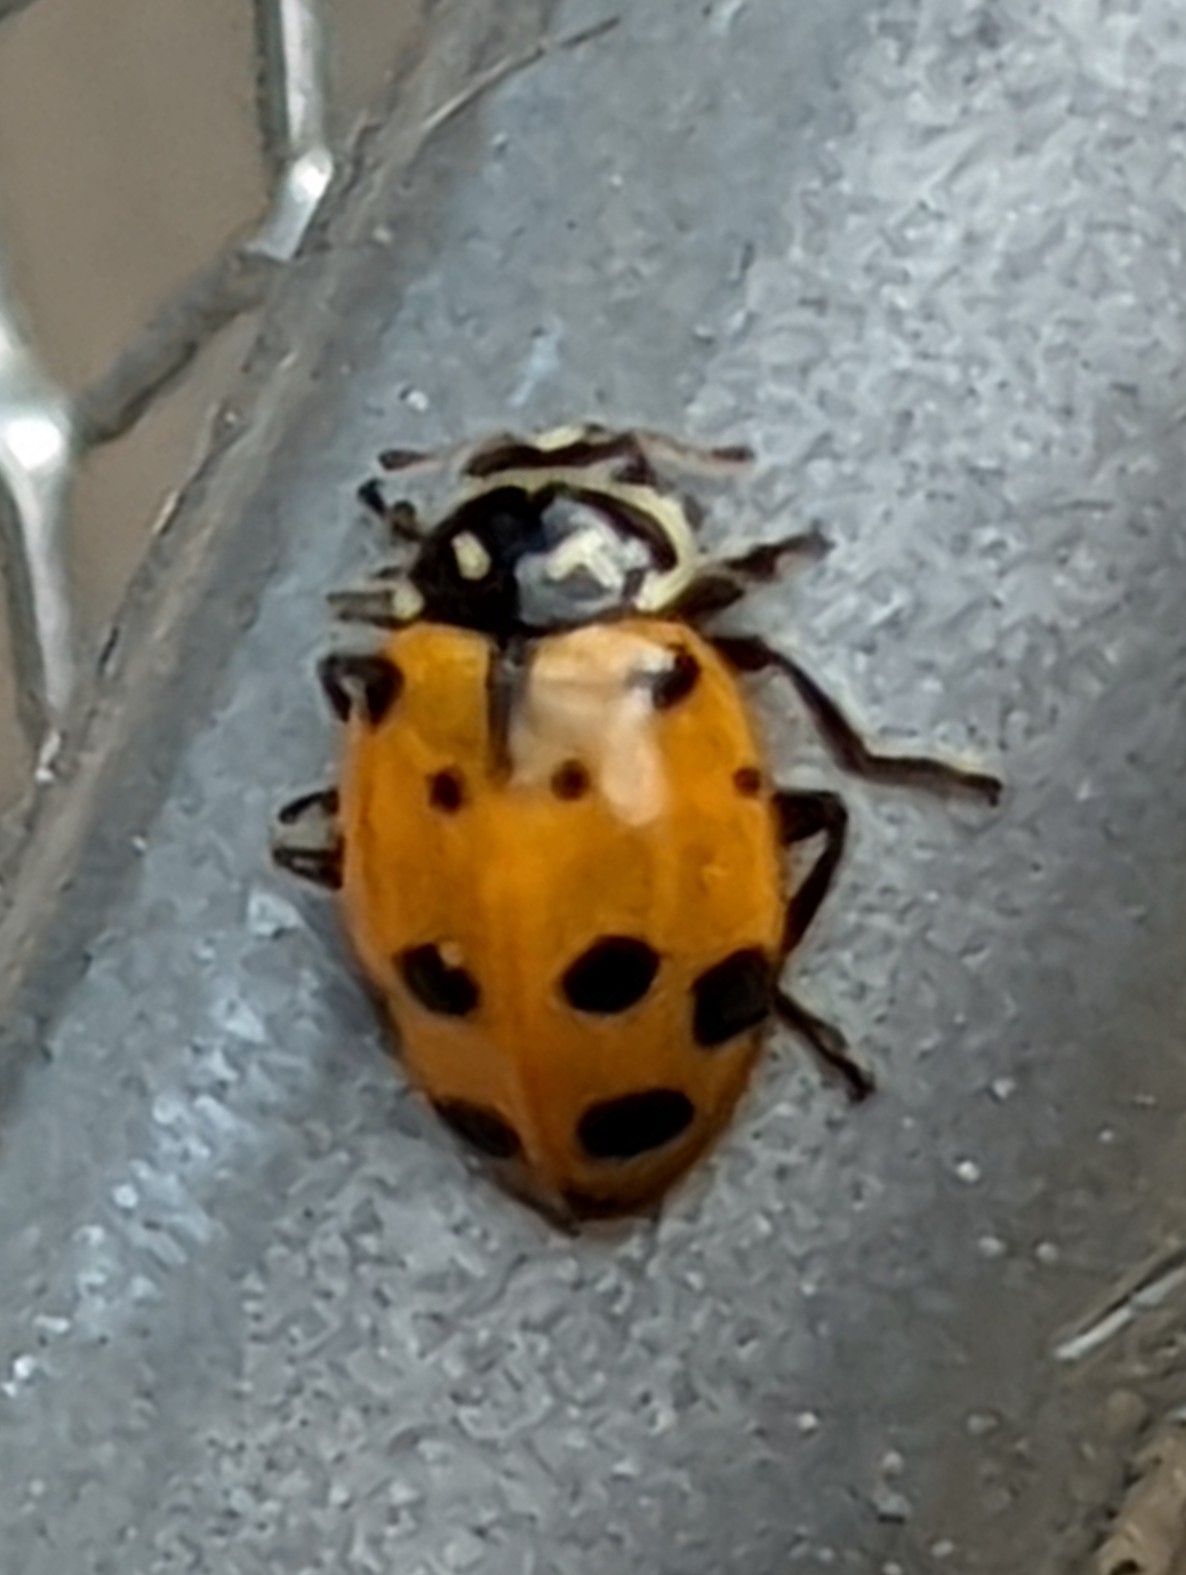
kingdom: Animalia
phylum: Arthropoda
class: Insecta
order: Coleoptera
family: Coccinellidae
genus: Hippodamia
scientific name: Hippodamia convergens
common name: Convergent lady beetle
